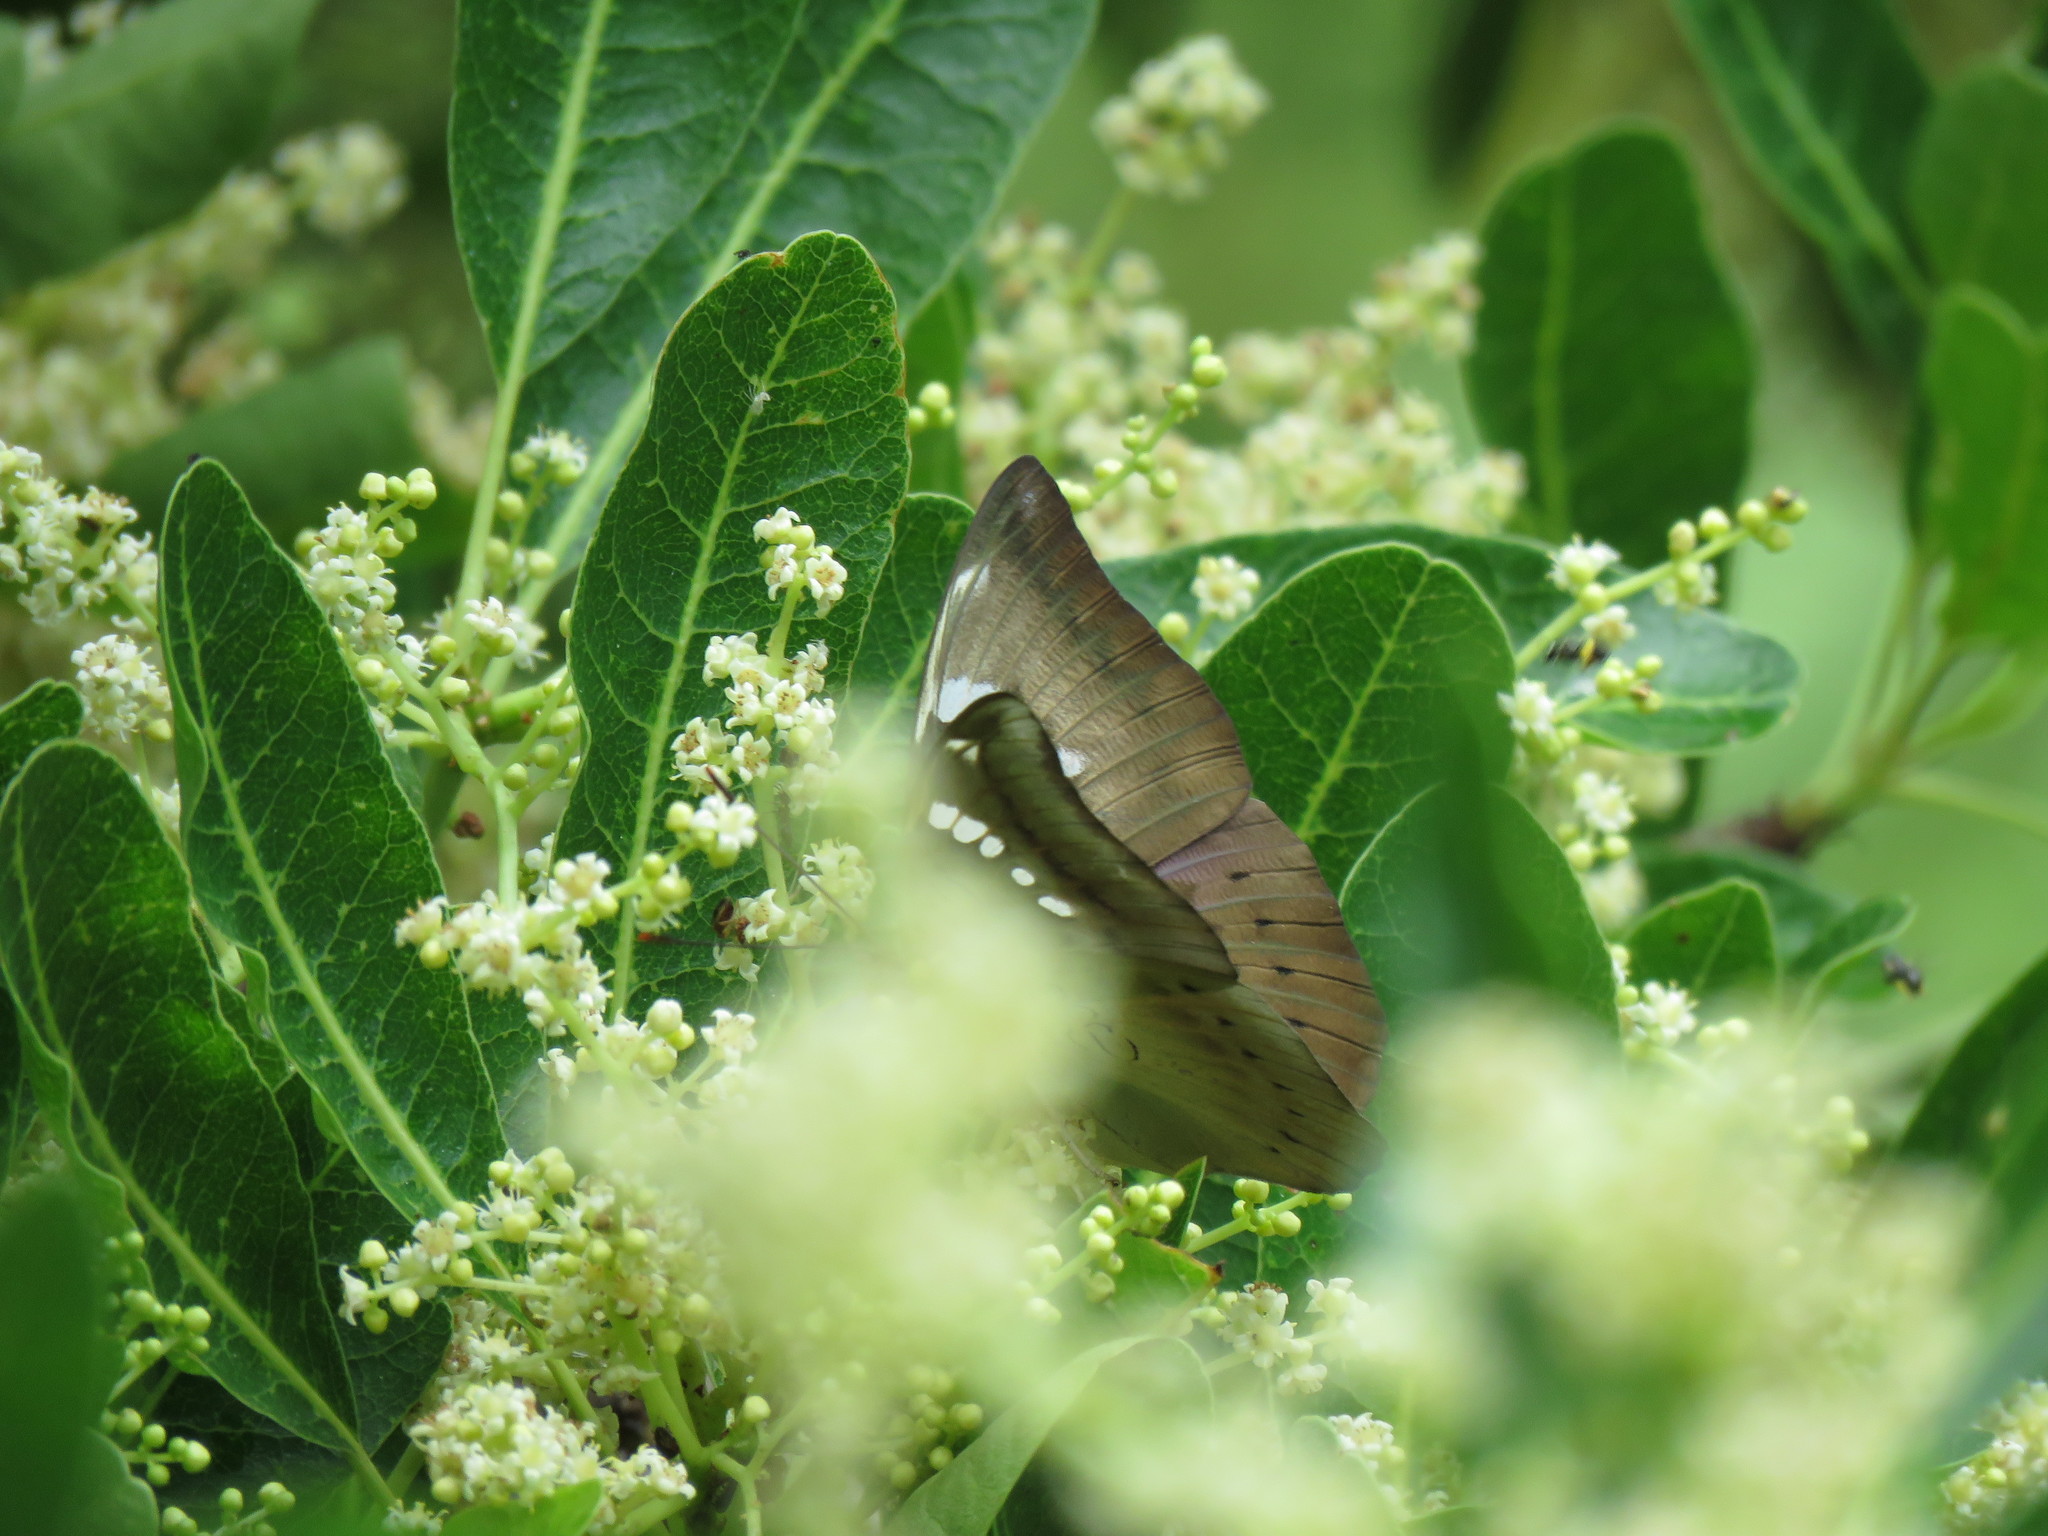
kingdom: Animalia
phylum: Arthropoda
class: Insecta
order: Lepidoptera
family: Nymphalidae
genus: Euthalia
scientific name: Euthalia aconthea
